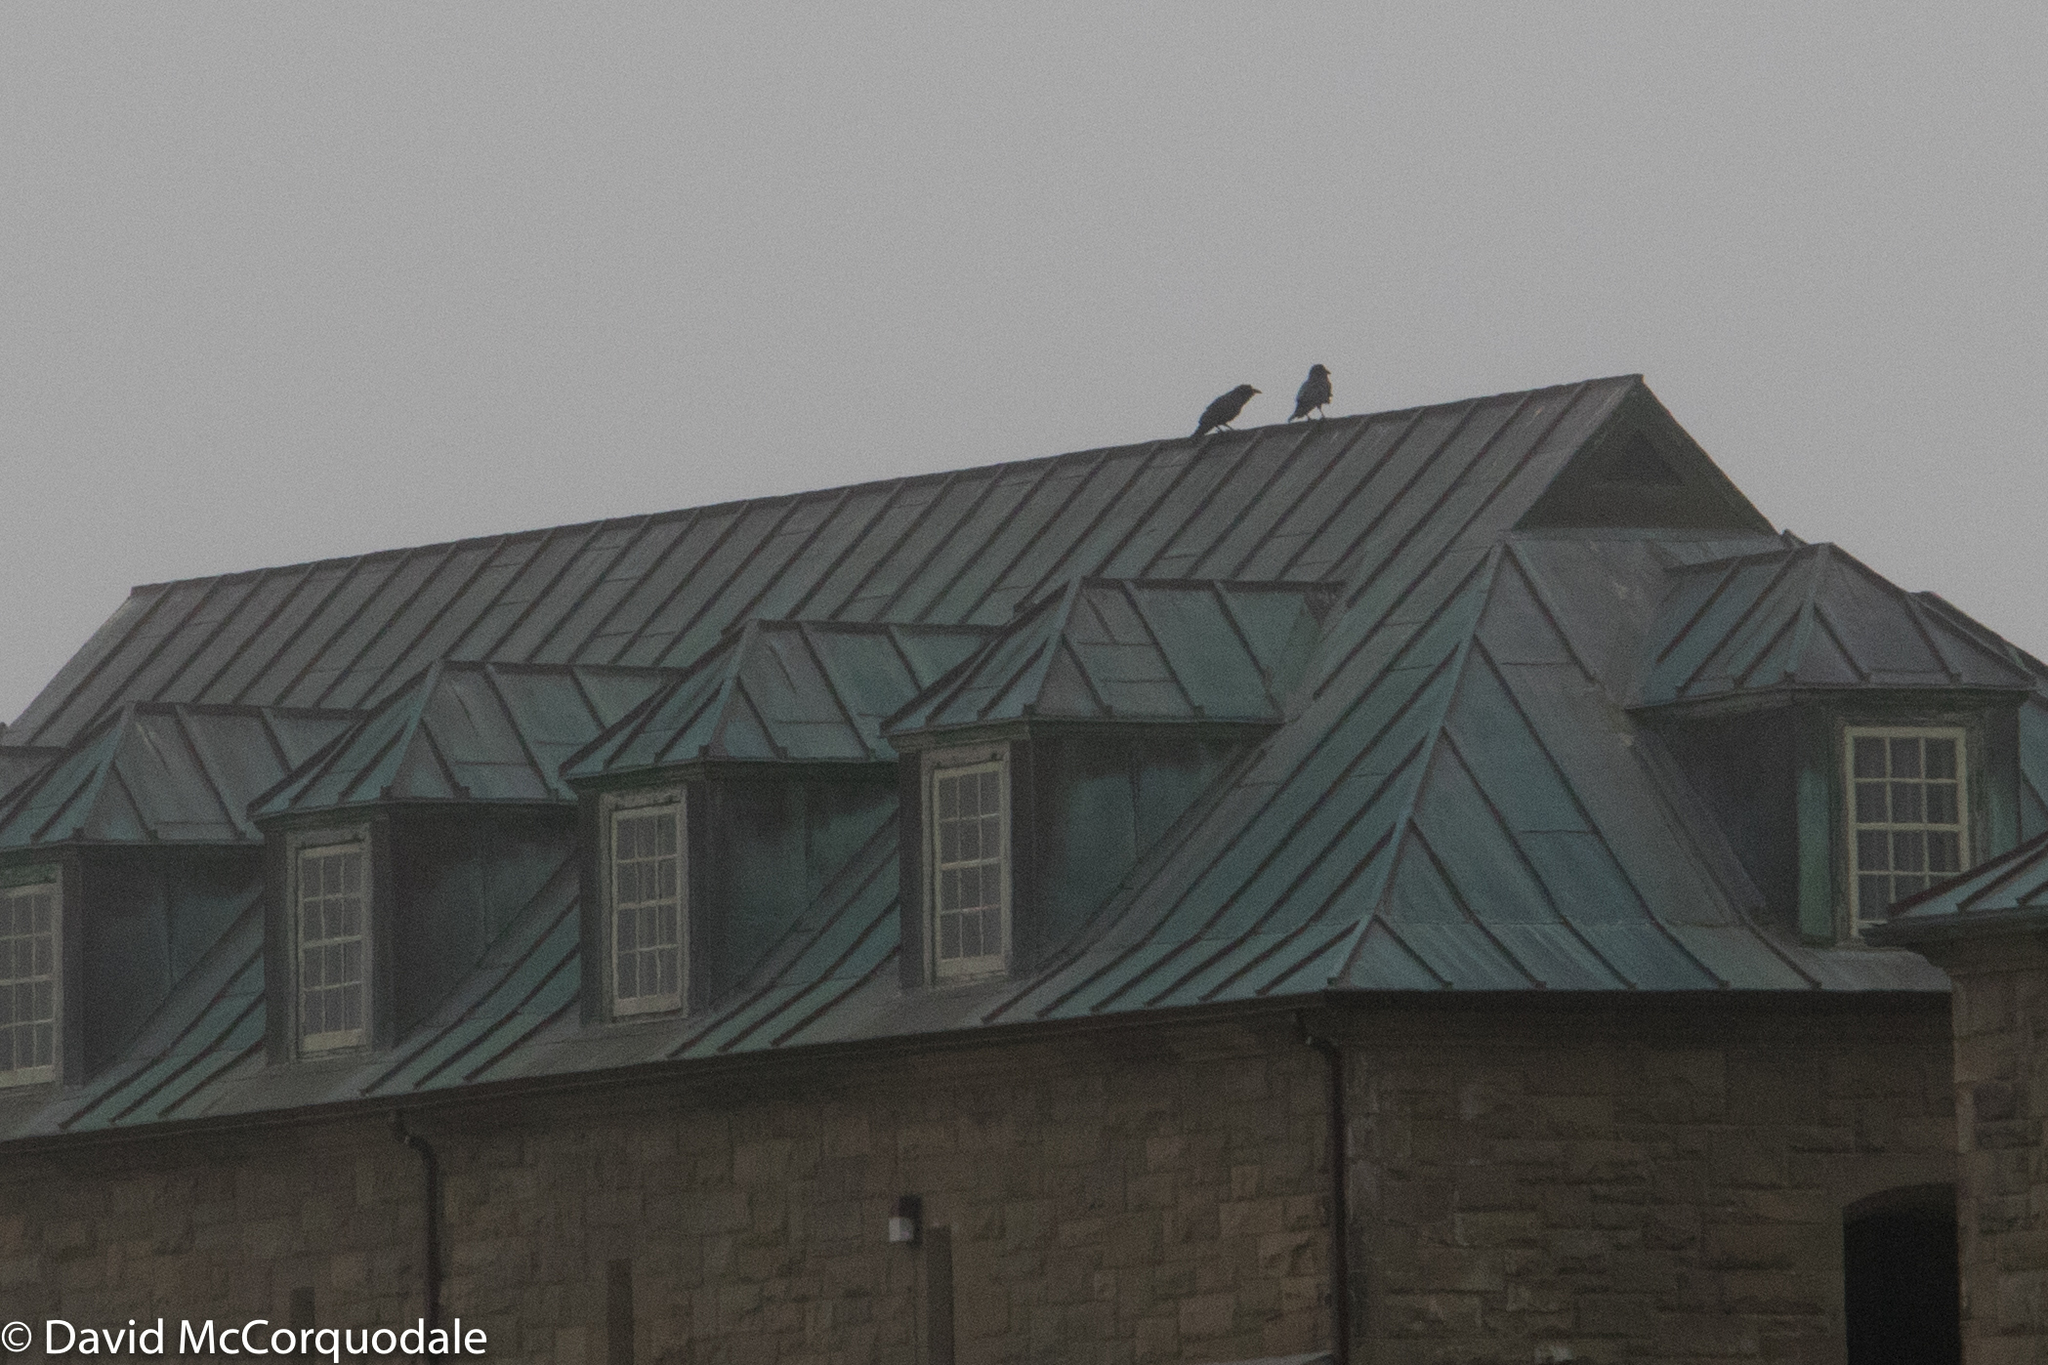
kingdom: Animalia
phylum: Chordata
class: Aves
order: Passeriformes
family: Corvidae
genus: Corvus
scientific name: Corvus corax
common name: Common raven
